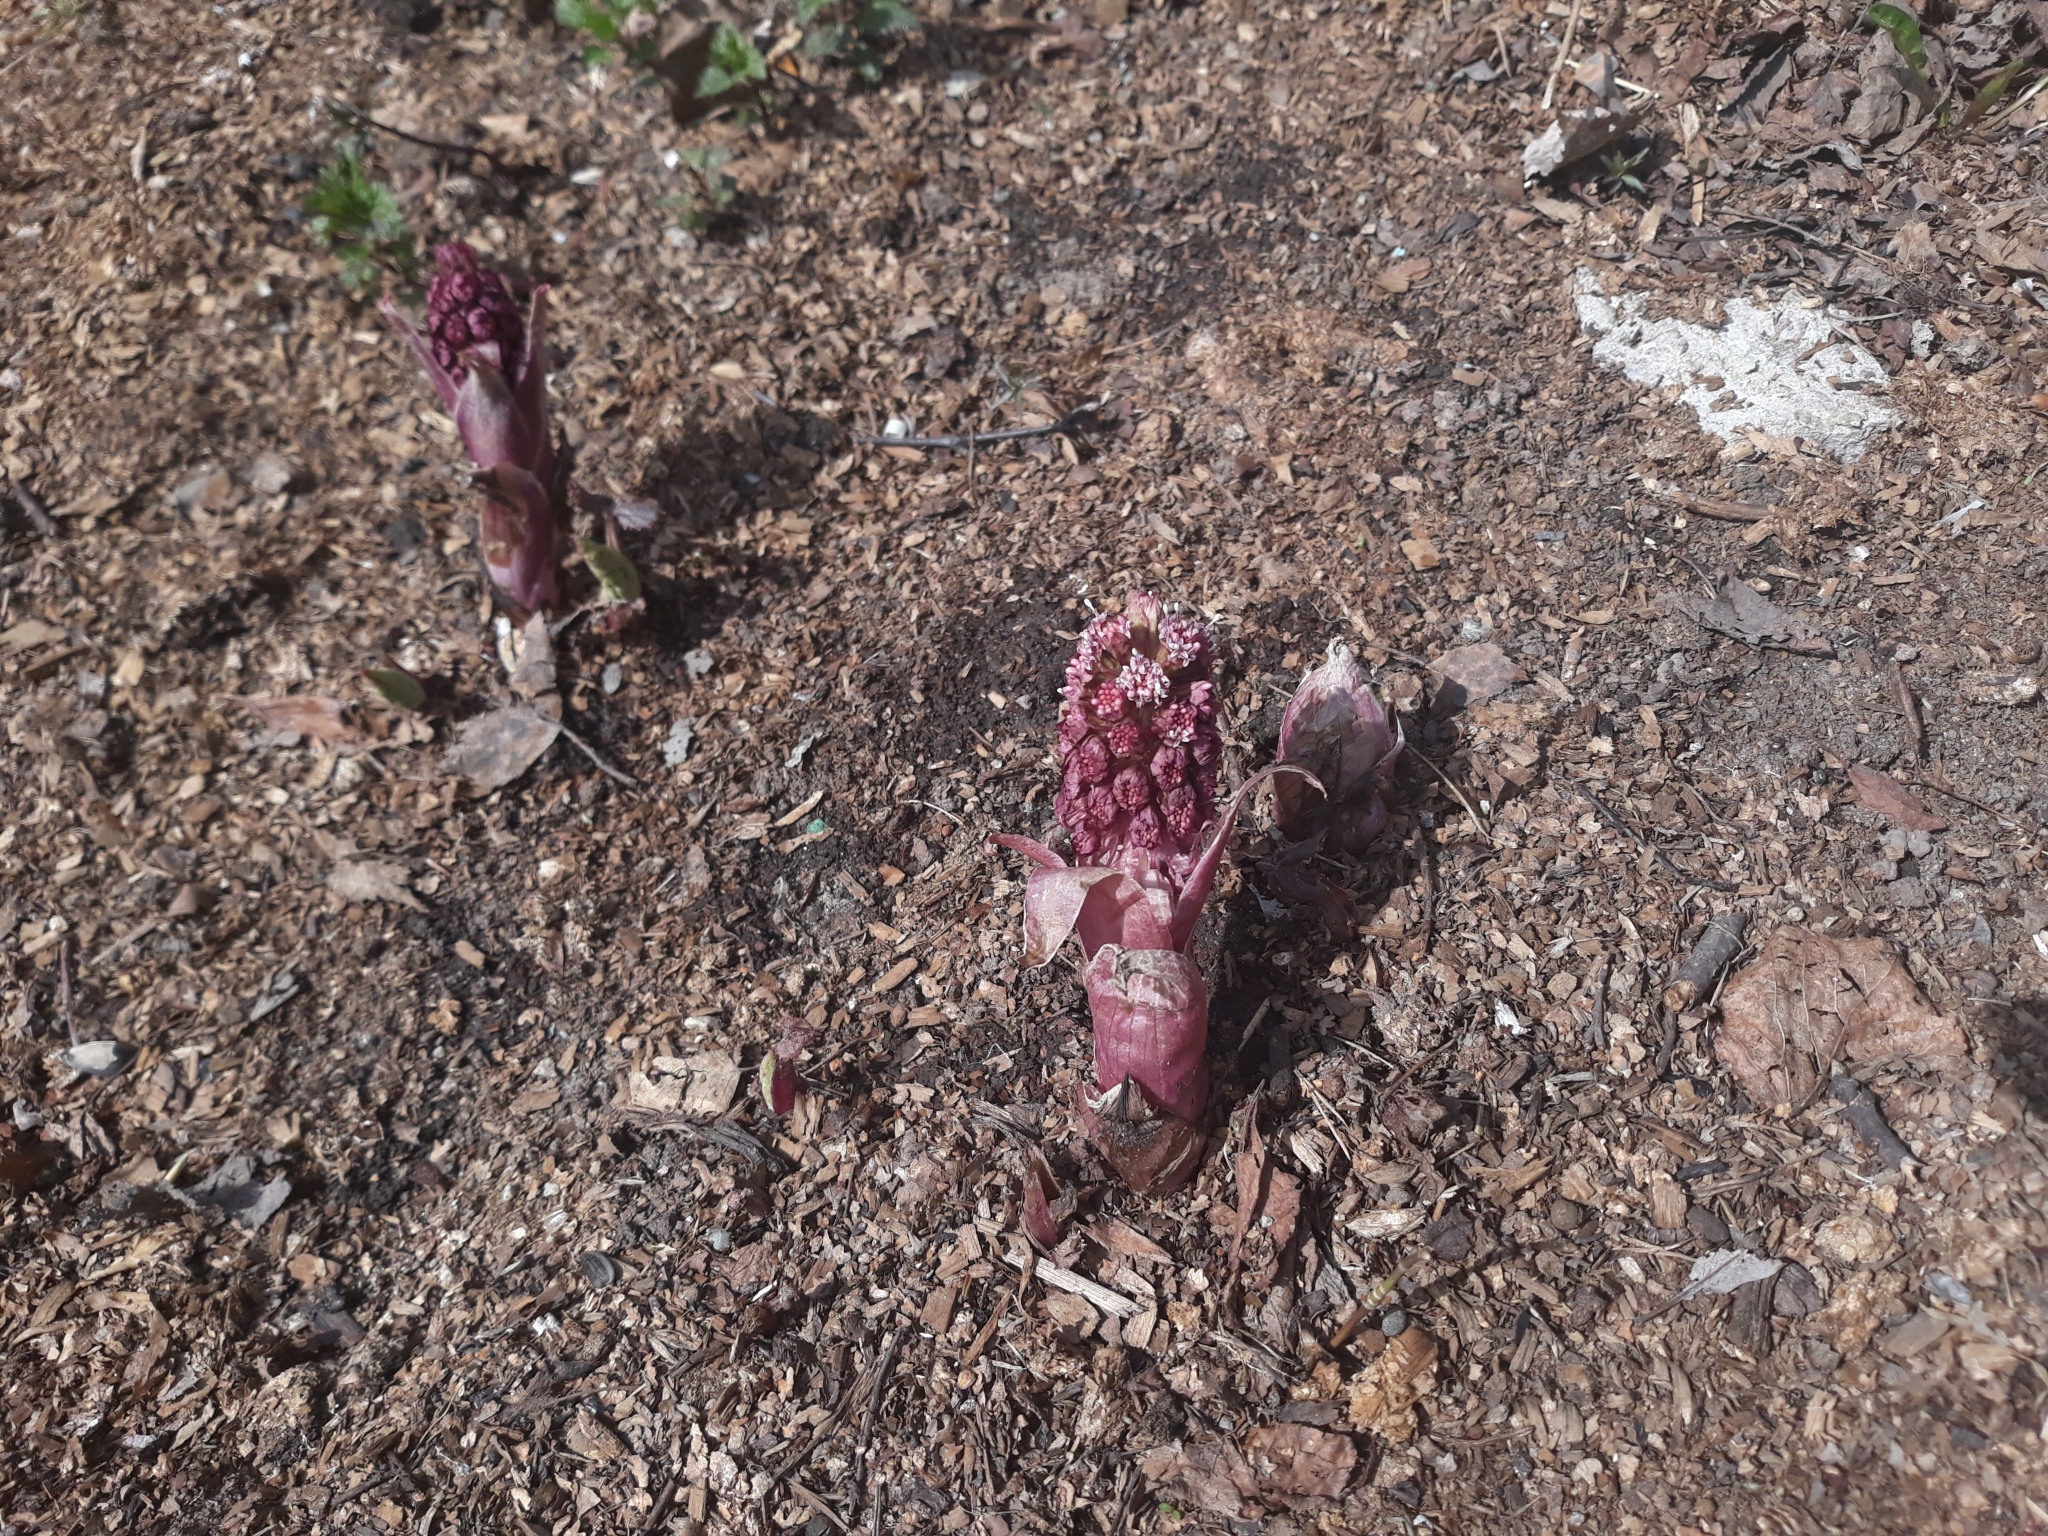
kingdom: Plantae
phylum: Tracheophyta
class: Magnoliopsida
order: Asterales
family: Asteraceae
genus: Petasites
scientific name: Petasites hybridus
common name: Butterbur
